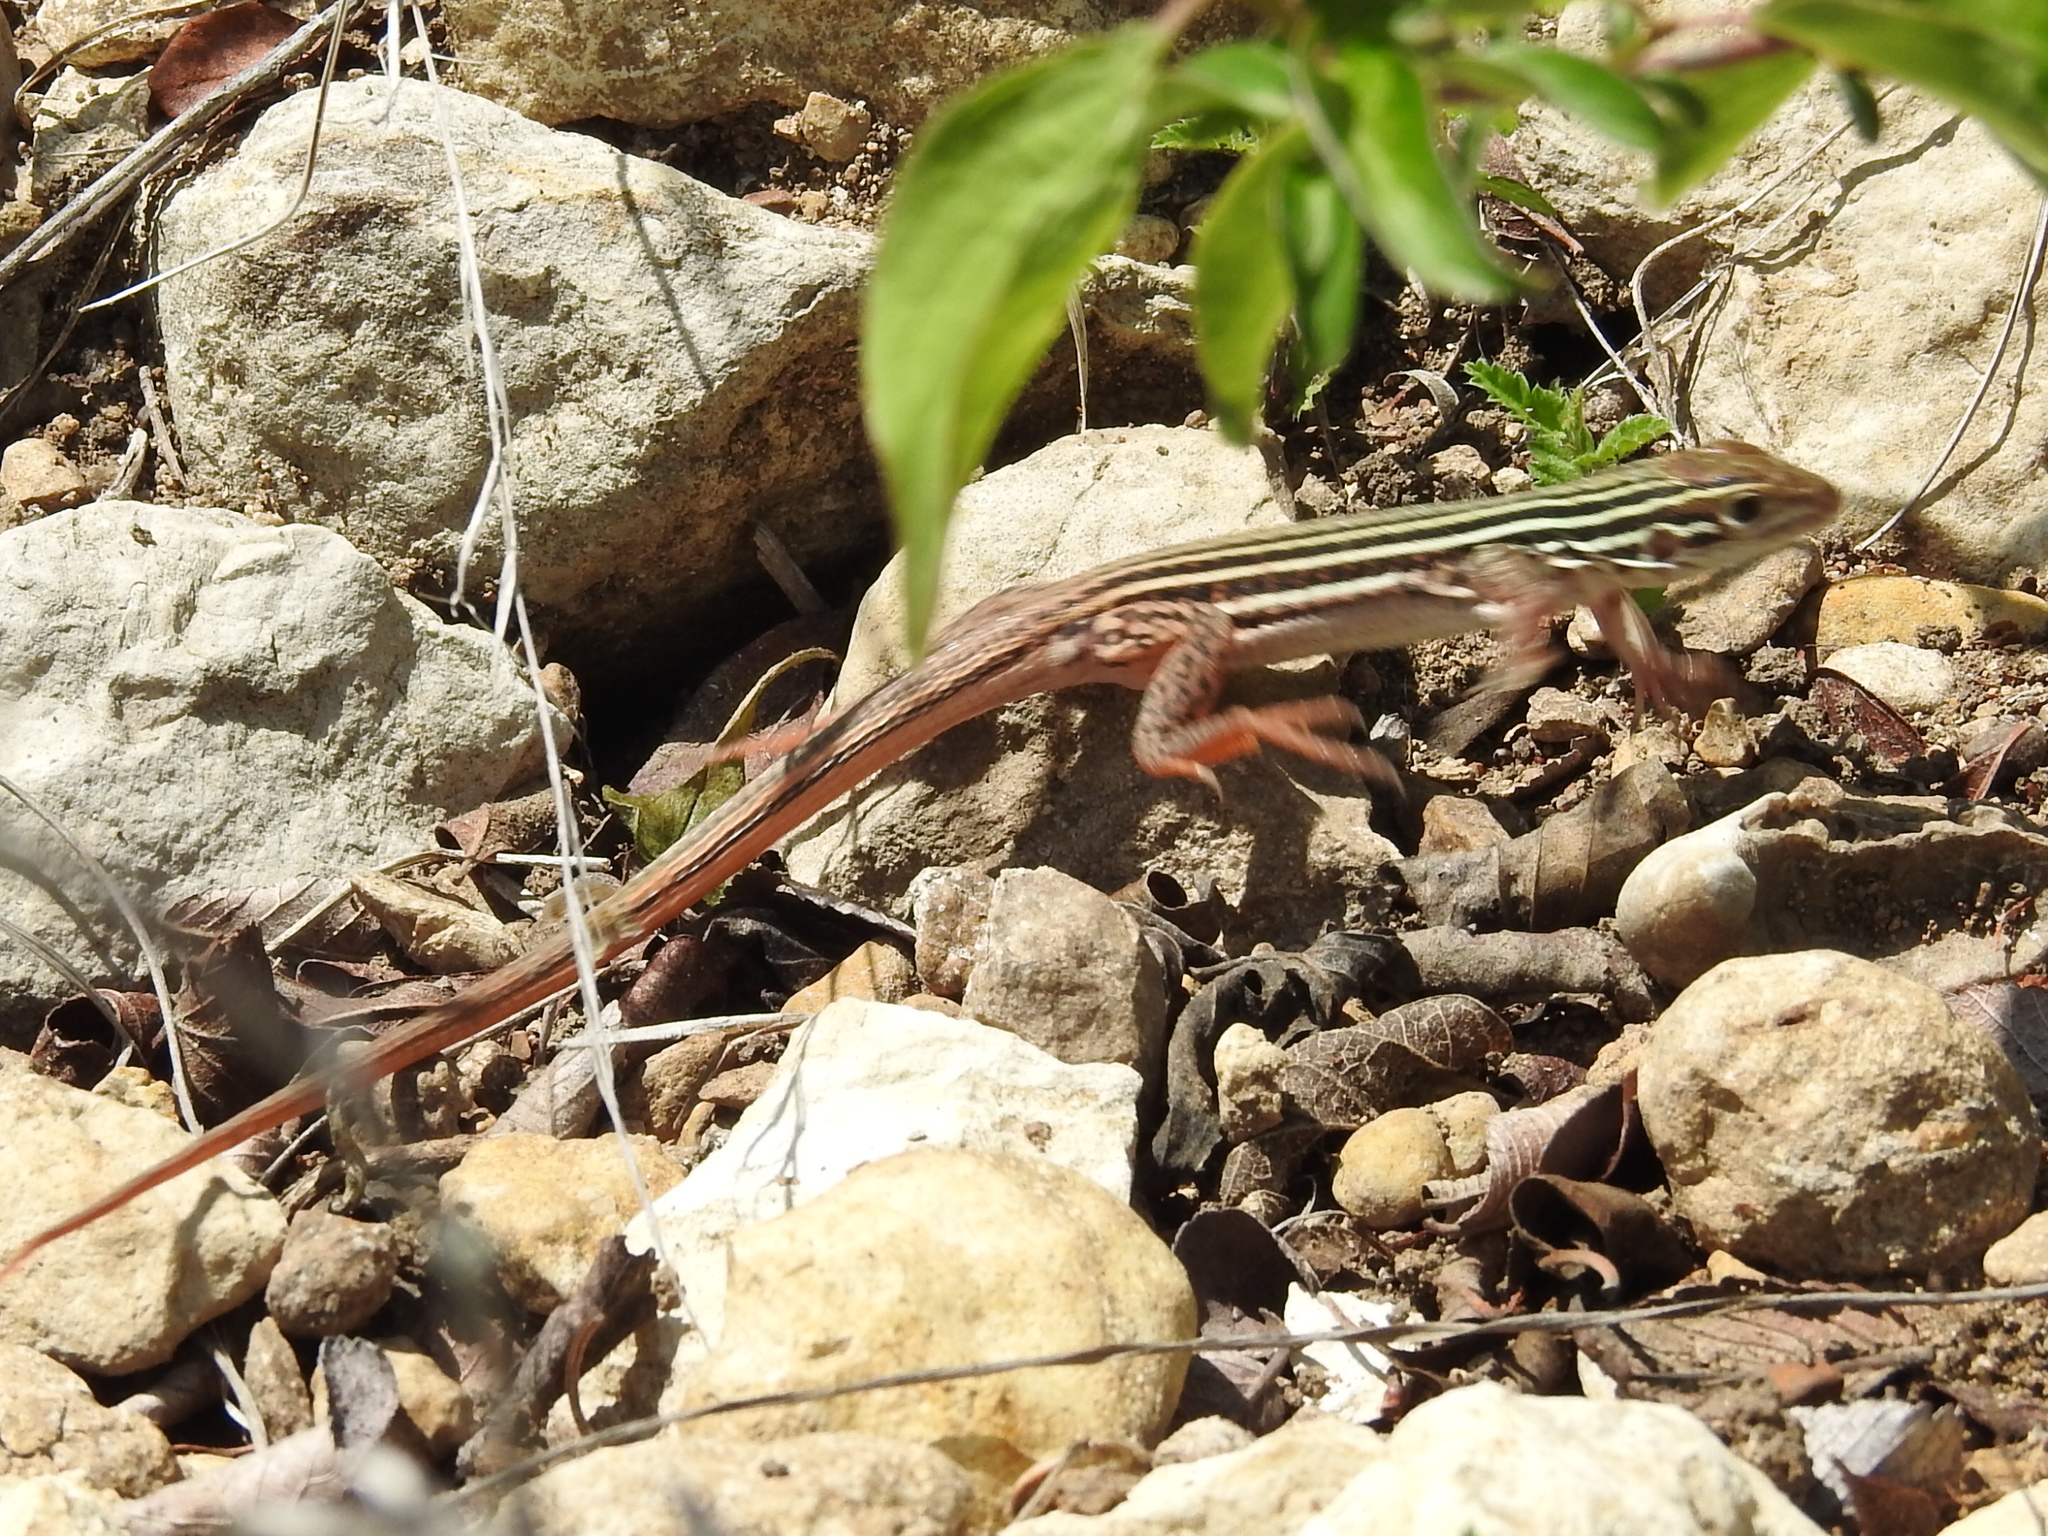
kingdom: Animalia
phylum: Chordata
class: Squamata
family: Teiidae
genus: Aspidoscelis
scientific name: Aspidoscelis gularis
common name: Eastern spotted whiptail
